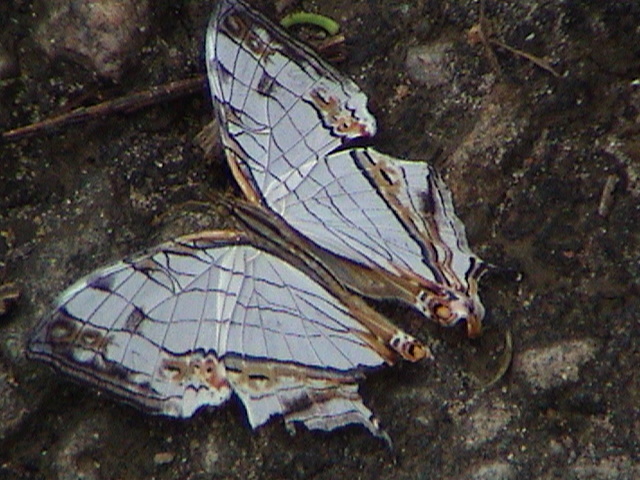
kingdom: Animalia
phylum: Arthropoda
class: Insecta
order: Lepidoptera
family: Nymphalidae
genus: Cyrestis
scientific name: Cyrestis thyodamas
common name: Common mapwing
